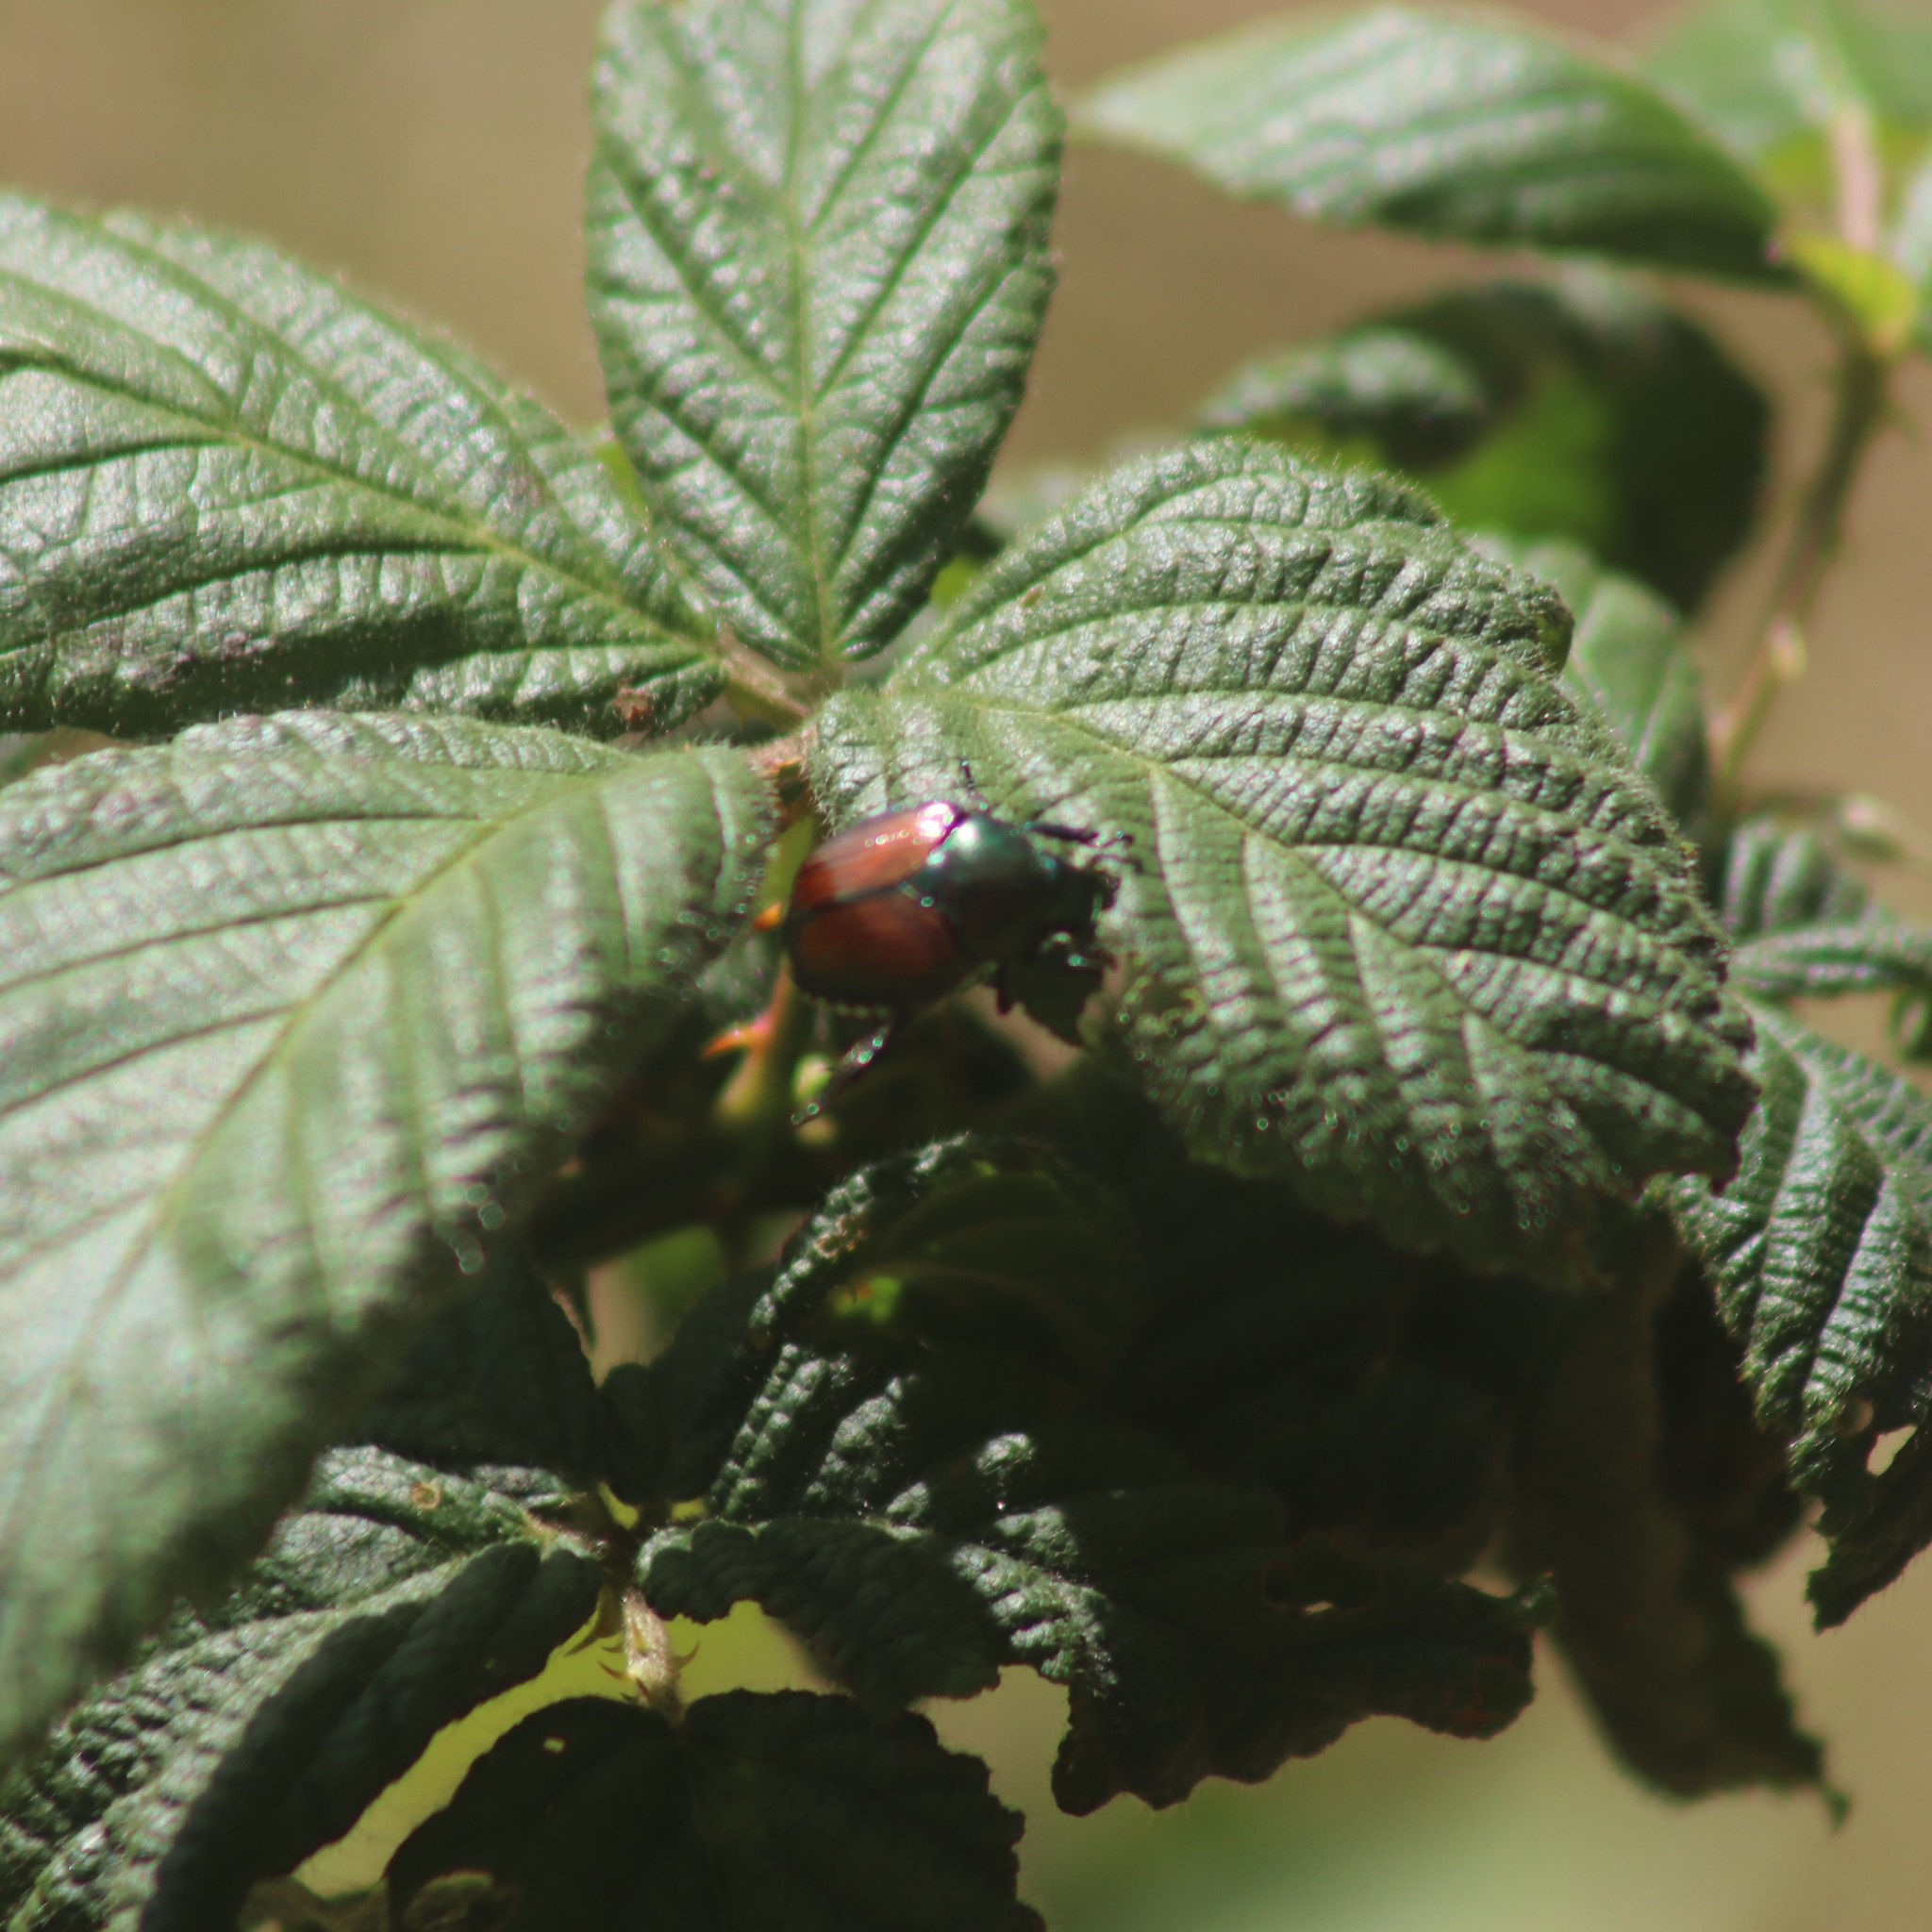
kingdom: Animalia
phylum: Arthropoda
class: Insecta
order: Coleoptera
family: Scarabaeidae
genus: Popillia
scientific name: Popillia japonica
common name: Japanese beetle
